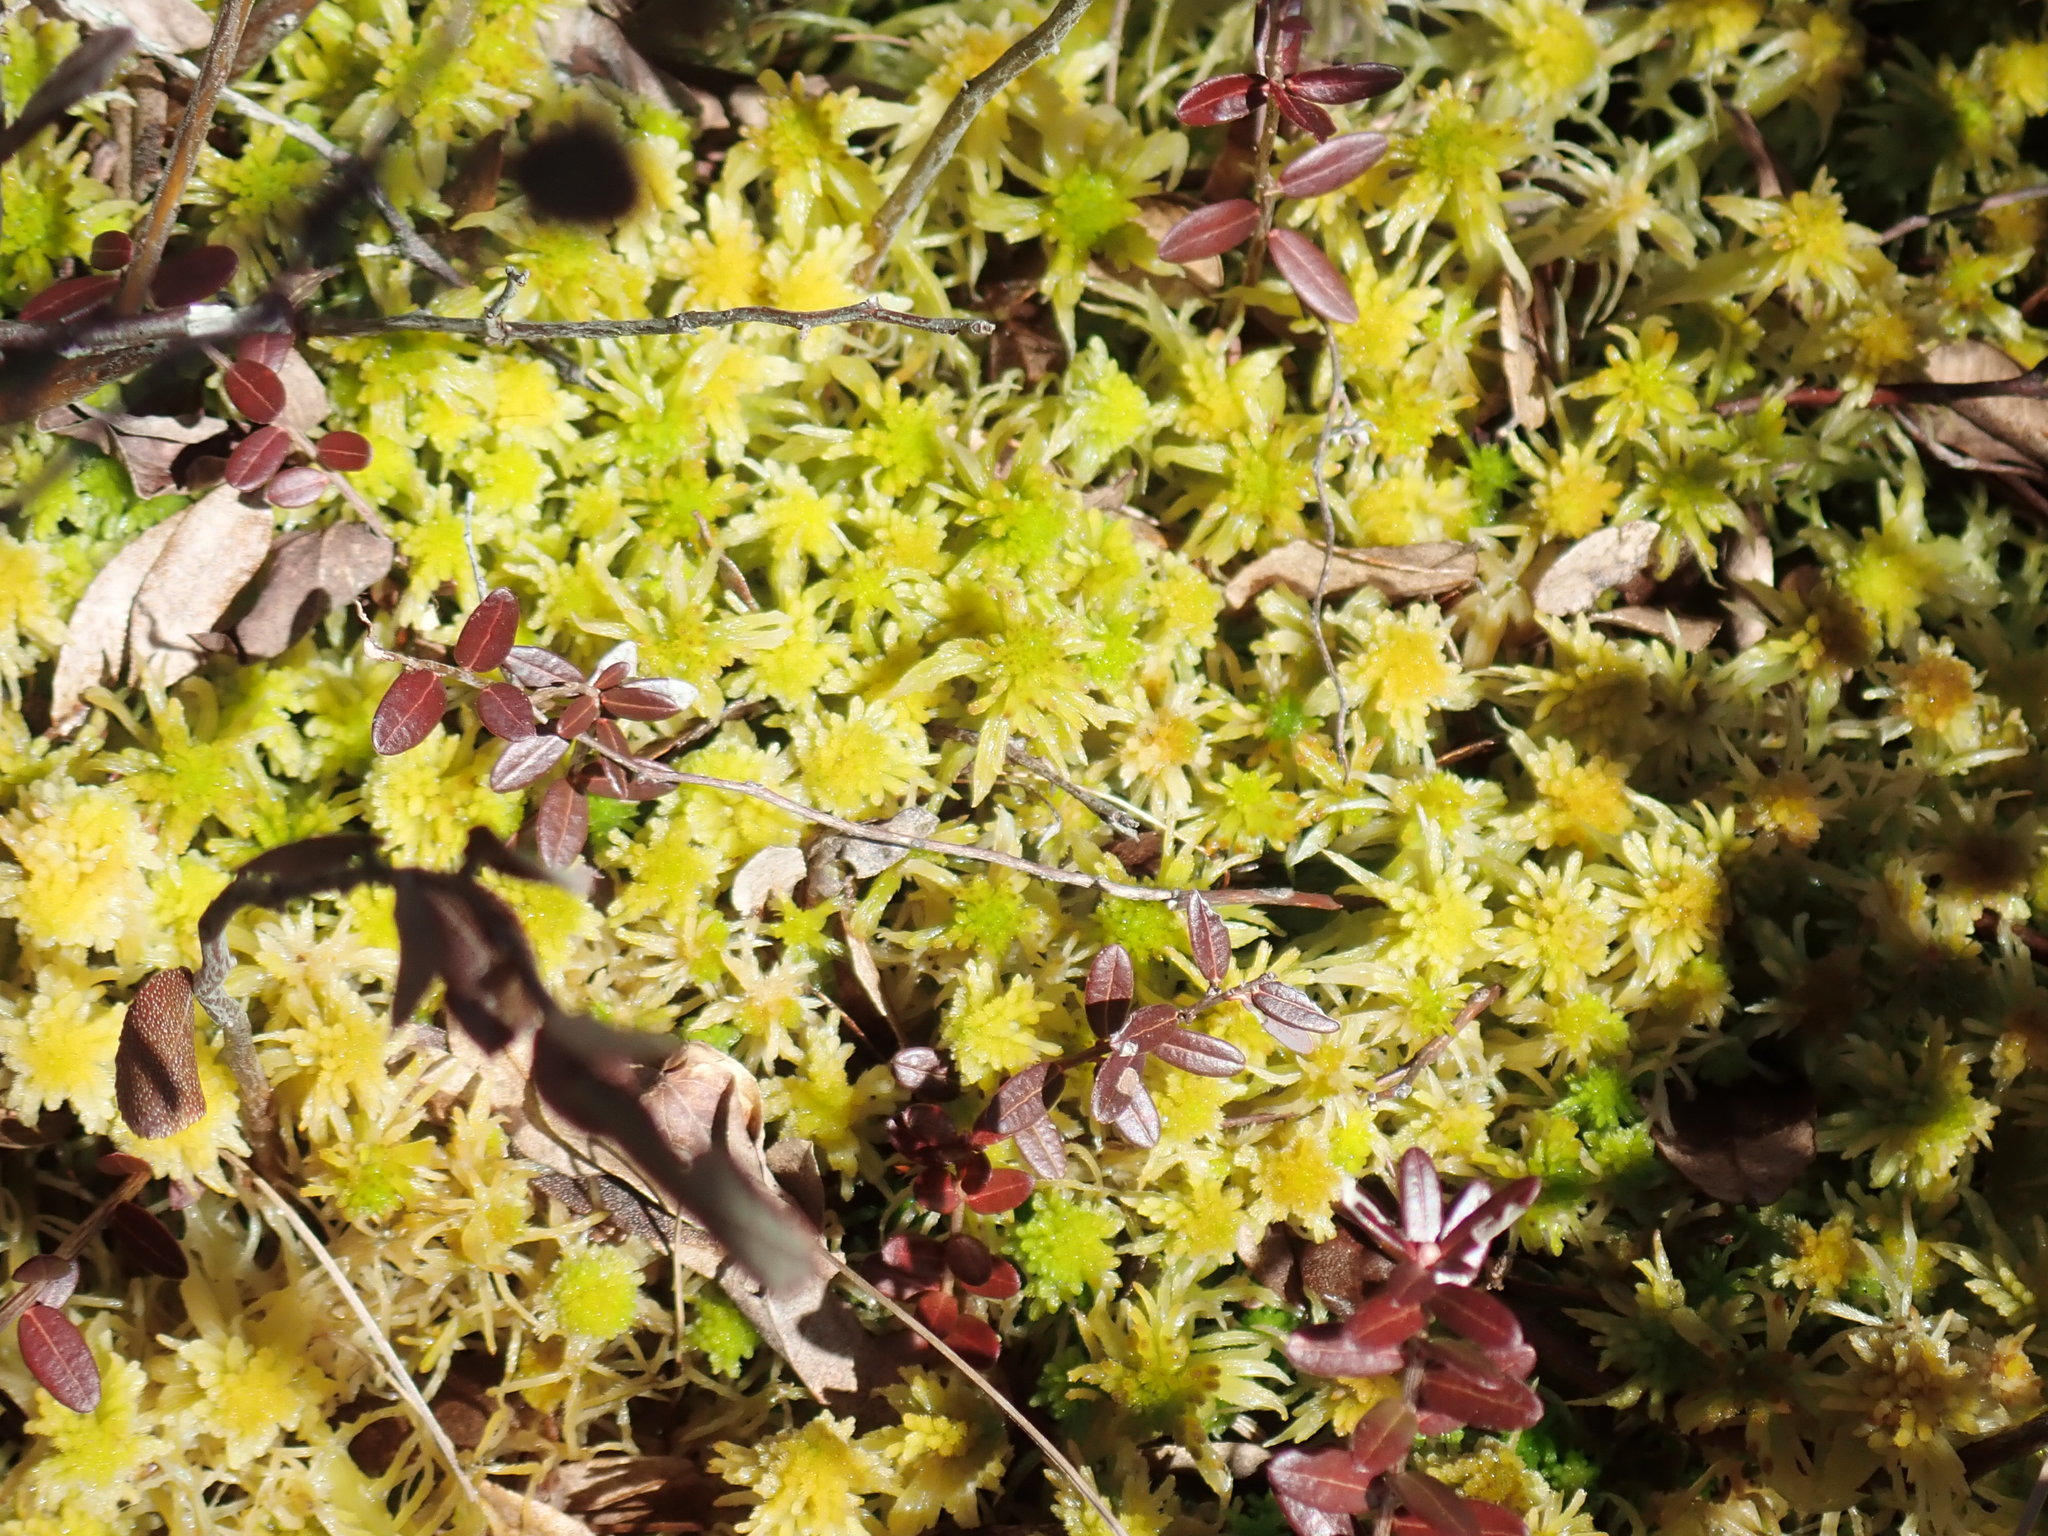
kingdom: Plantae
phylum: Bryophyta
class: Sphagnopsida
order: Sphagnales
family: Sphagnaceae
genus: Sphagnum
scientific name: Sphagnum
